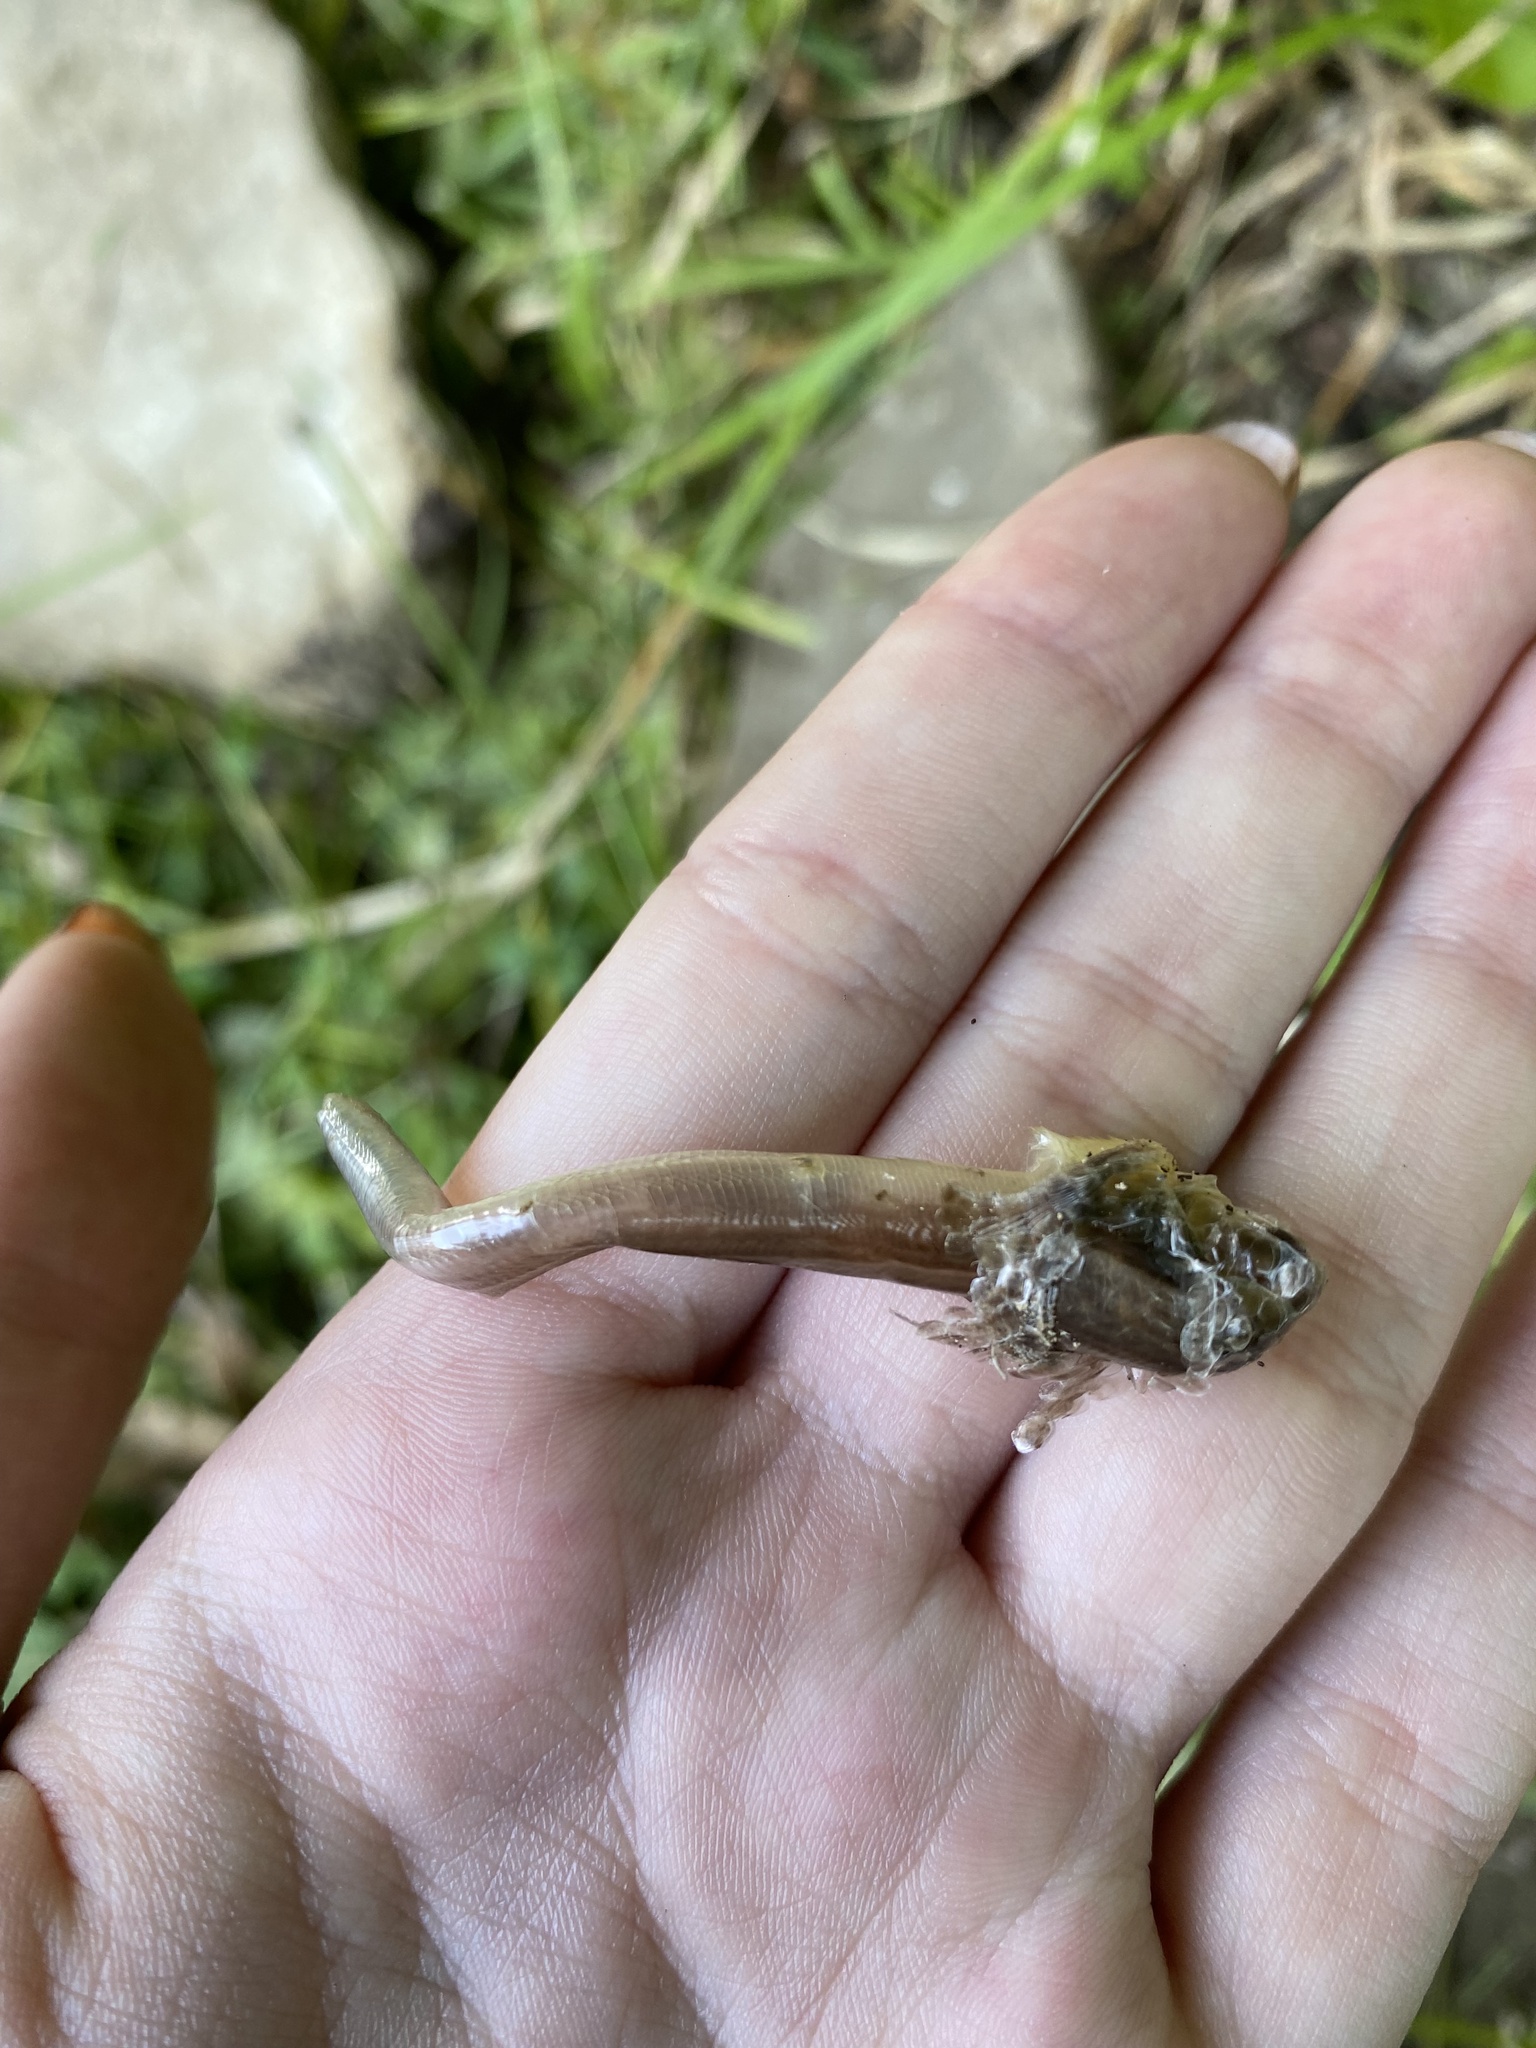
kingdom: Animalia
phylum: Chordata
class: Squamata
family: Anguidae
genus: Anguis
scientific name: Anguis colchica
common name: Slow worm
